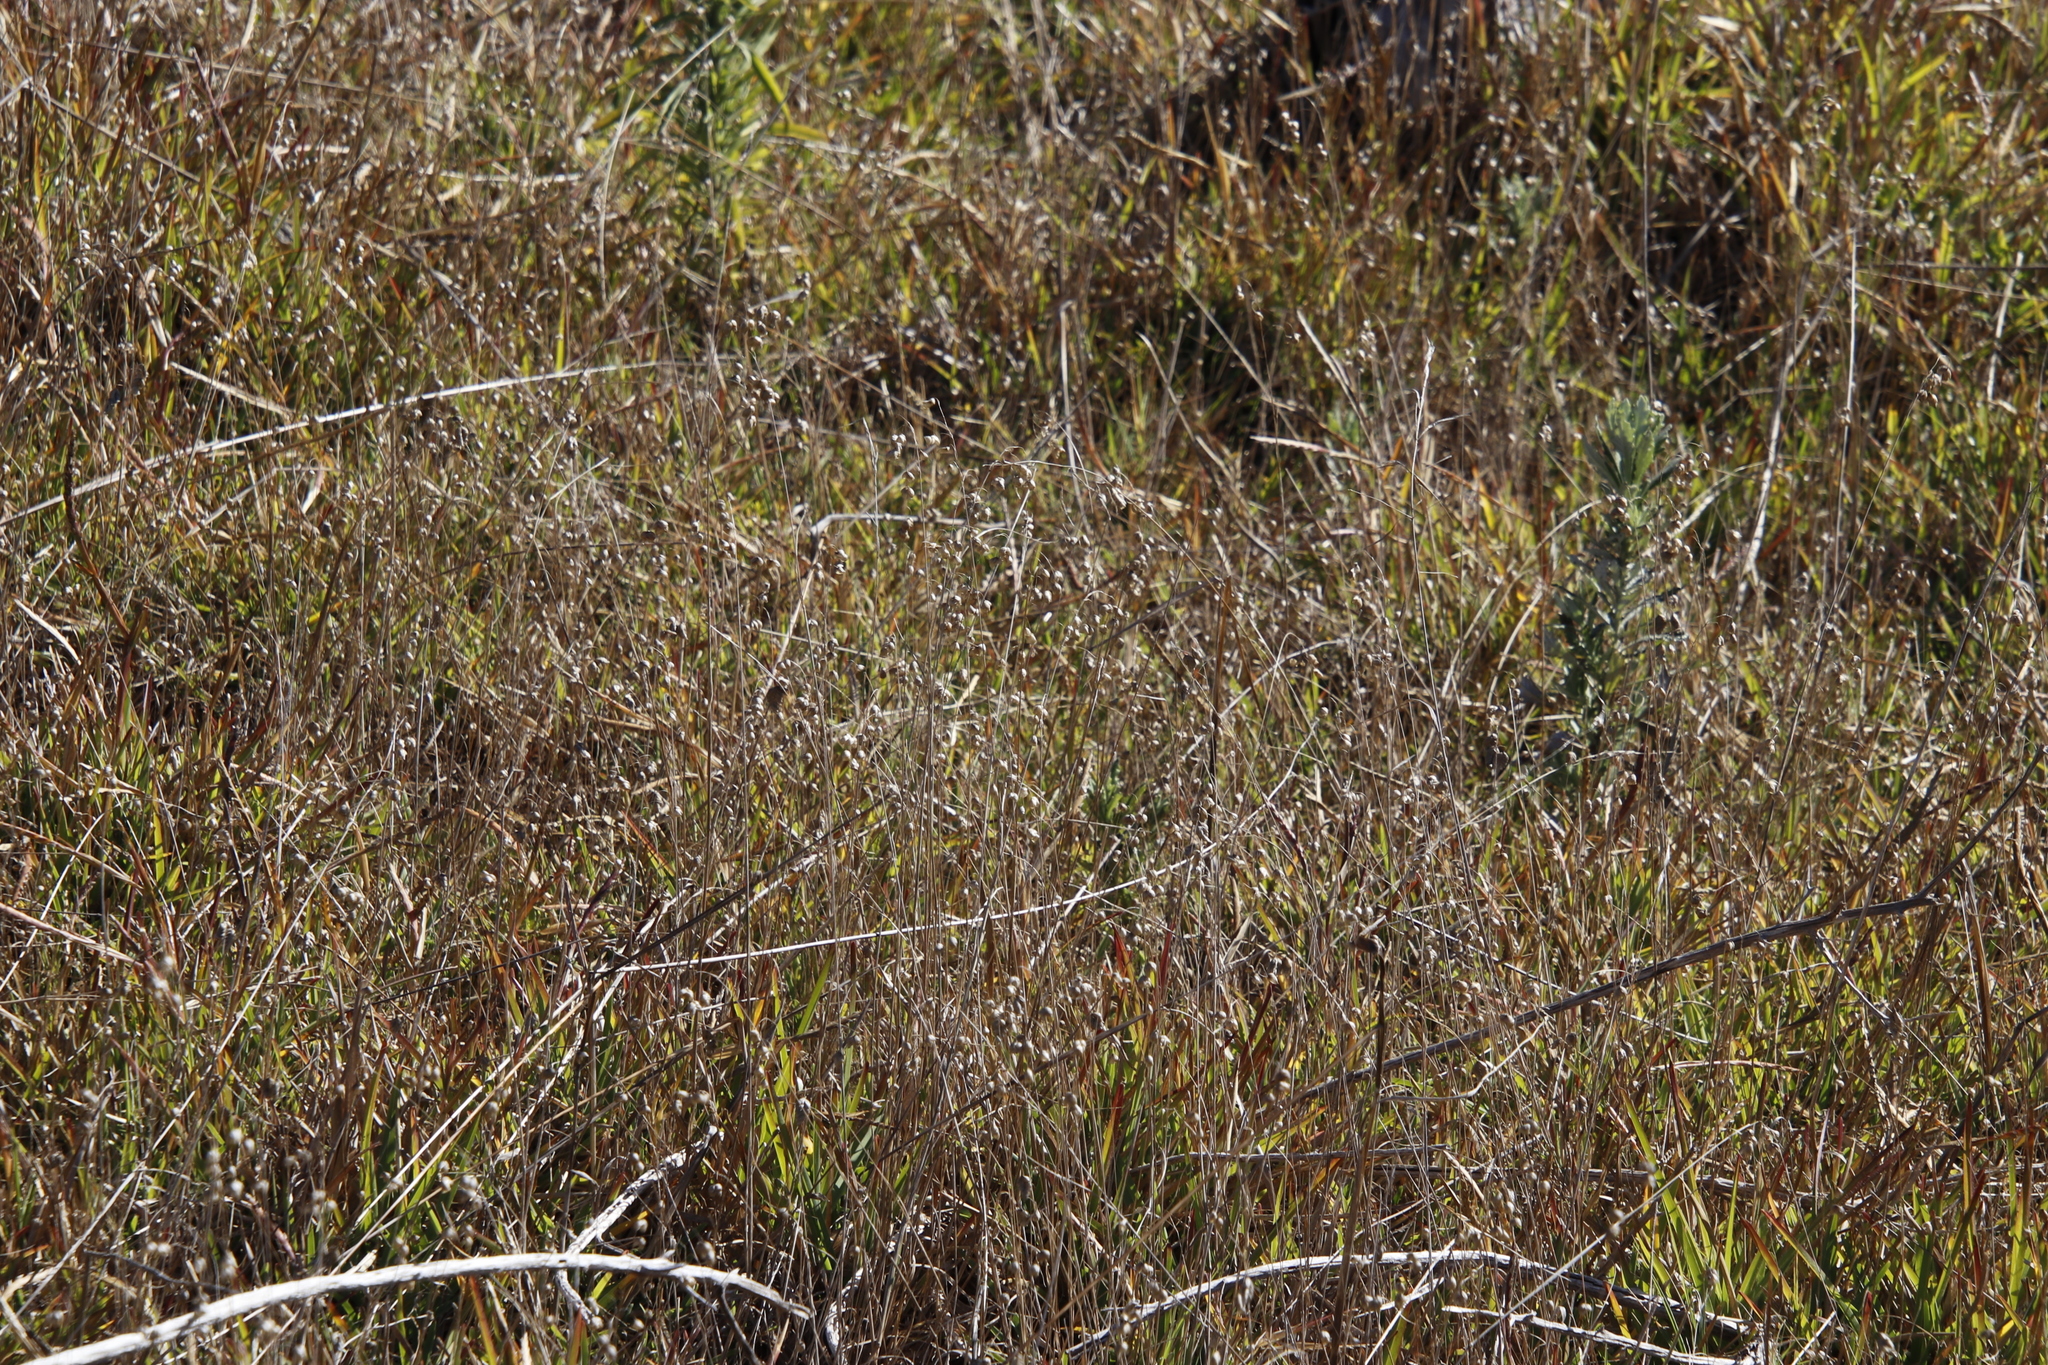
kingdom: Plantae
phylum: Tracheophyta
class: Liliopsida
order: Poales
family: Poaceae
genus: Briza
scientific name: Briza maxima
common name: Big quakinggrass
